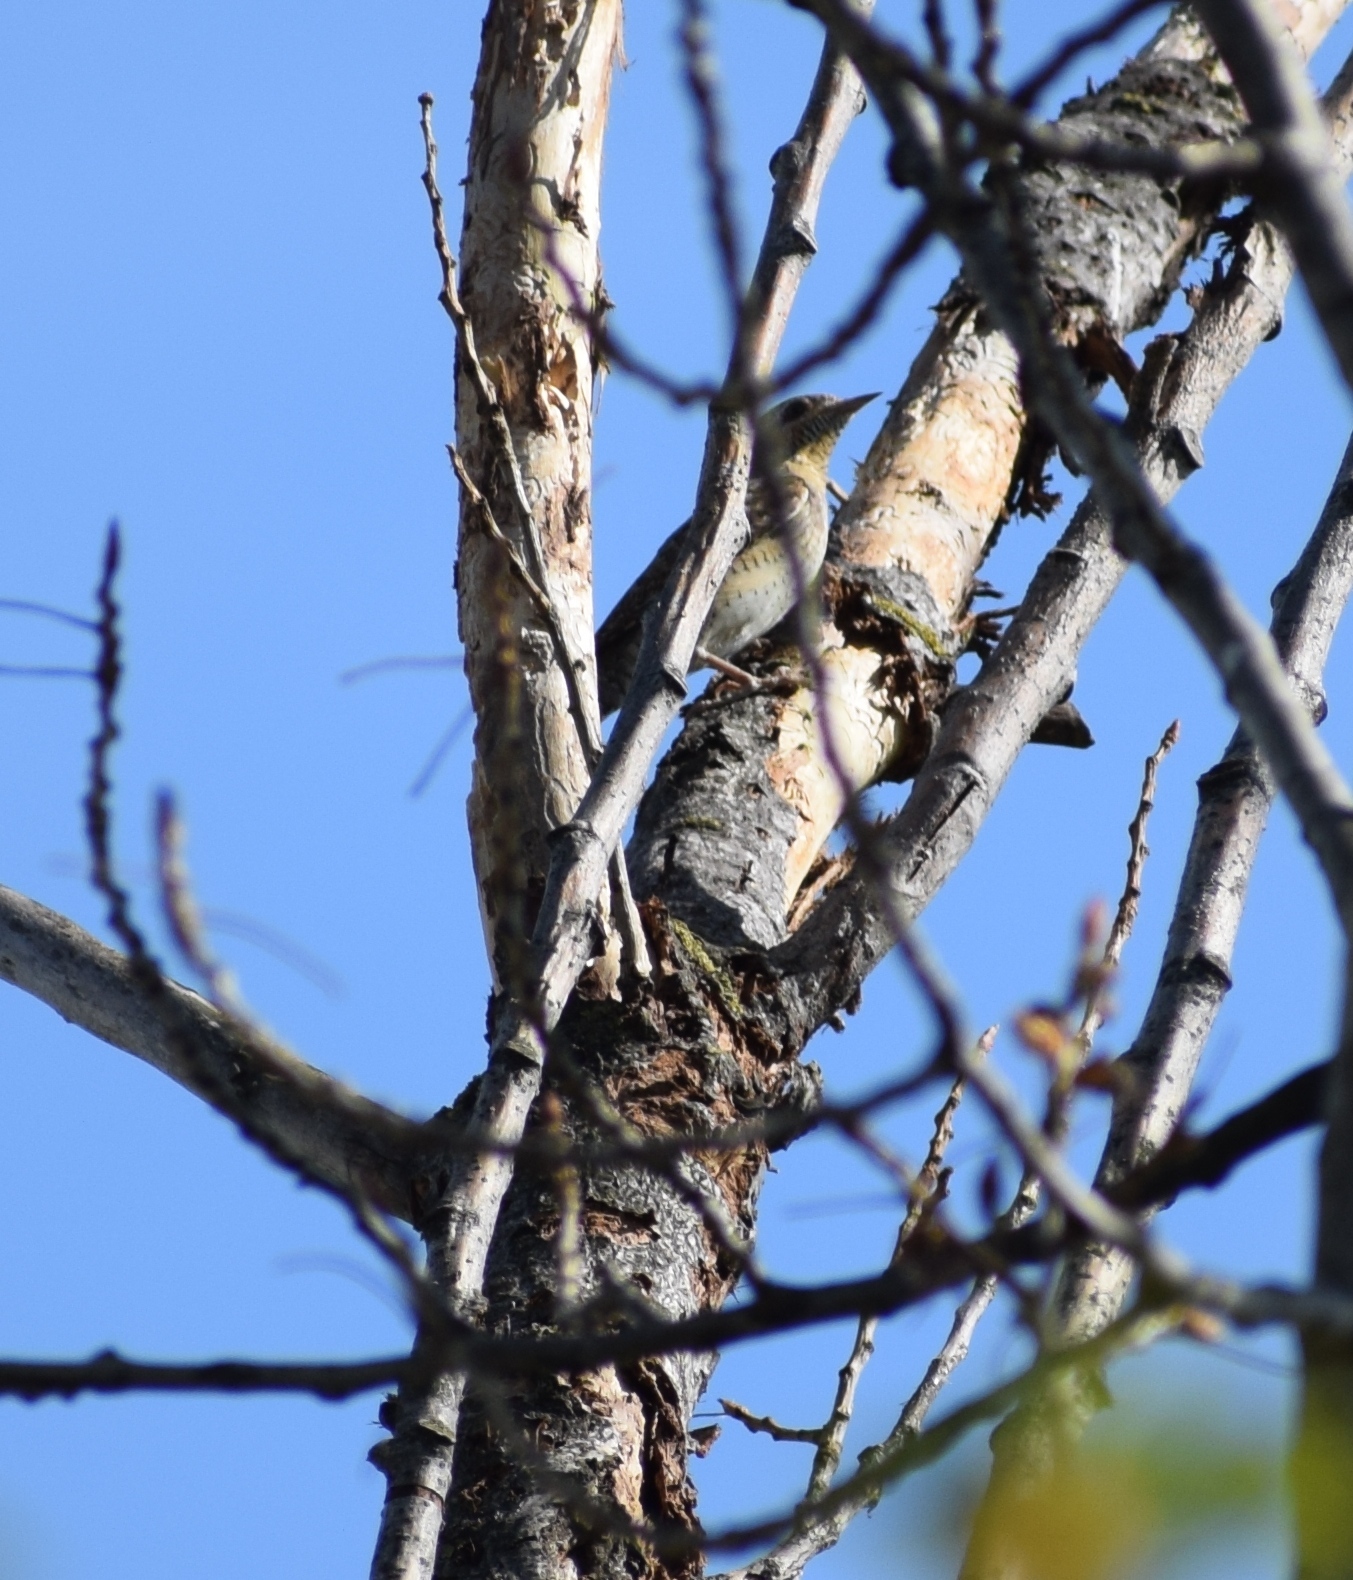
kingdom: Animalia
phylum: Chordata
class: Aves
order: Piciformes
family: Picidae
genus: Jynx
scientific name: Jynx torquilla
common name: Eurasian wryneck
